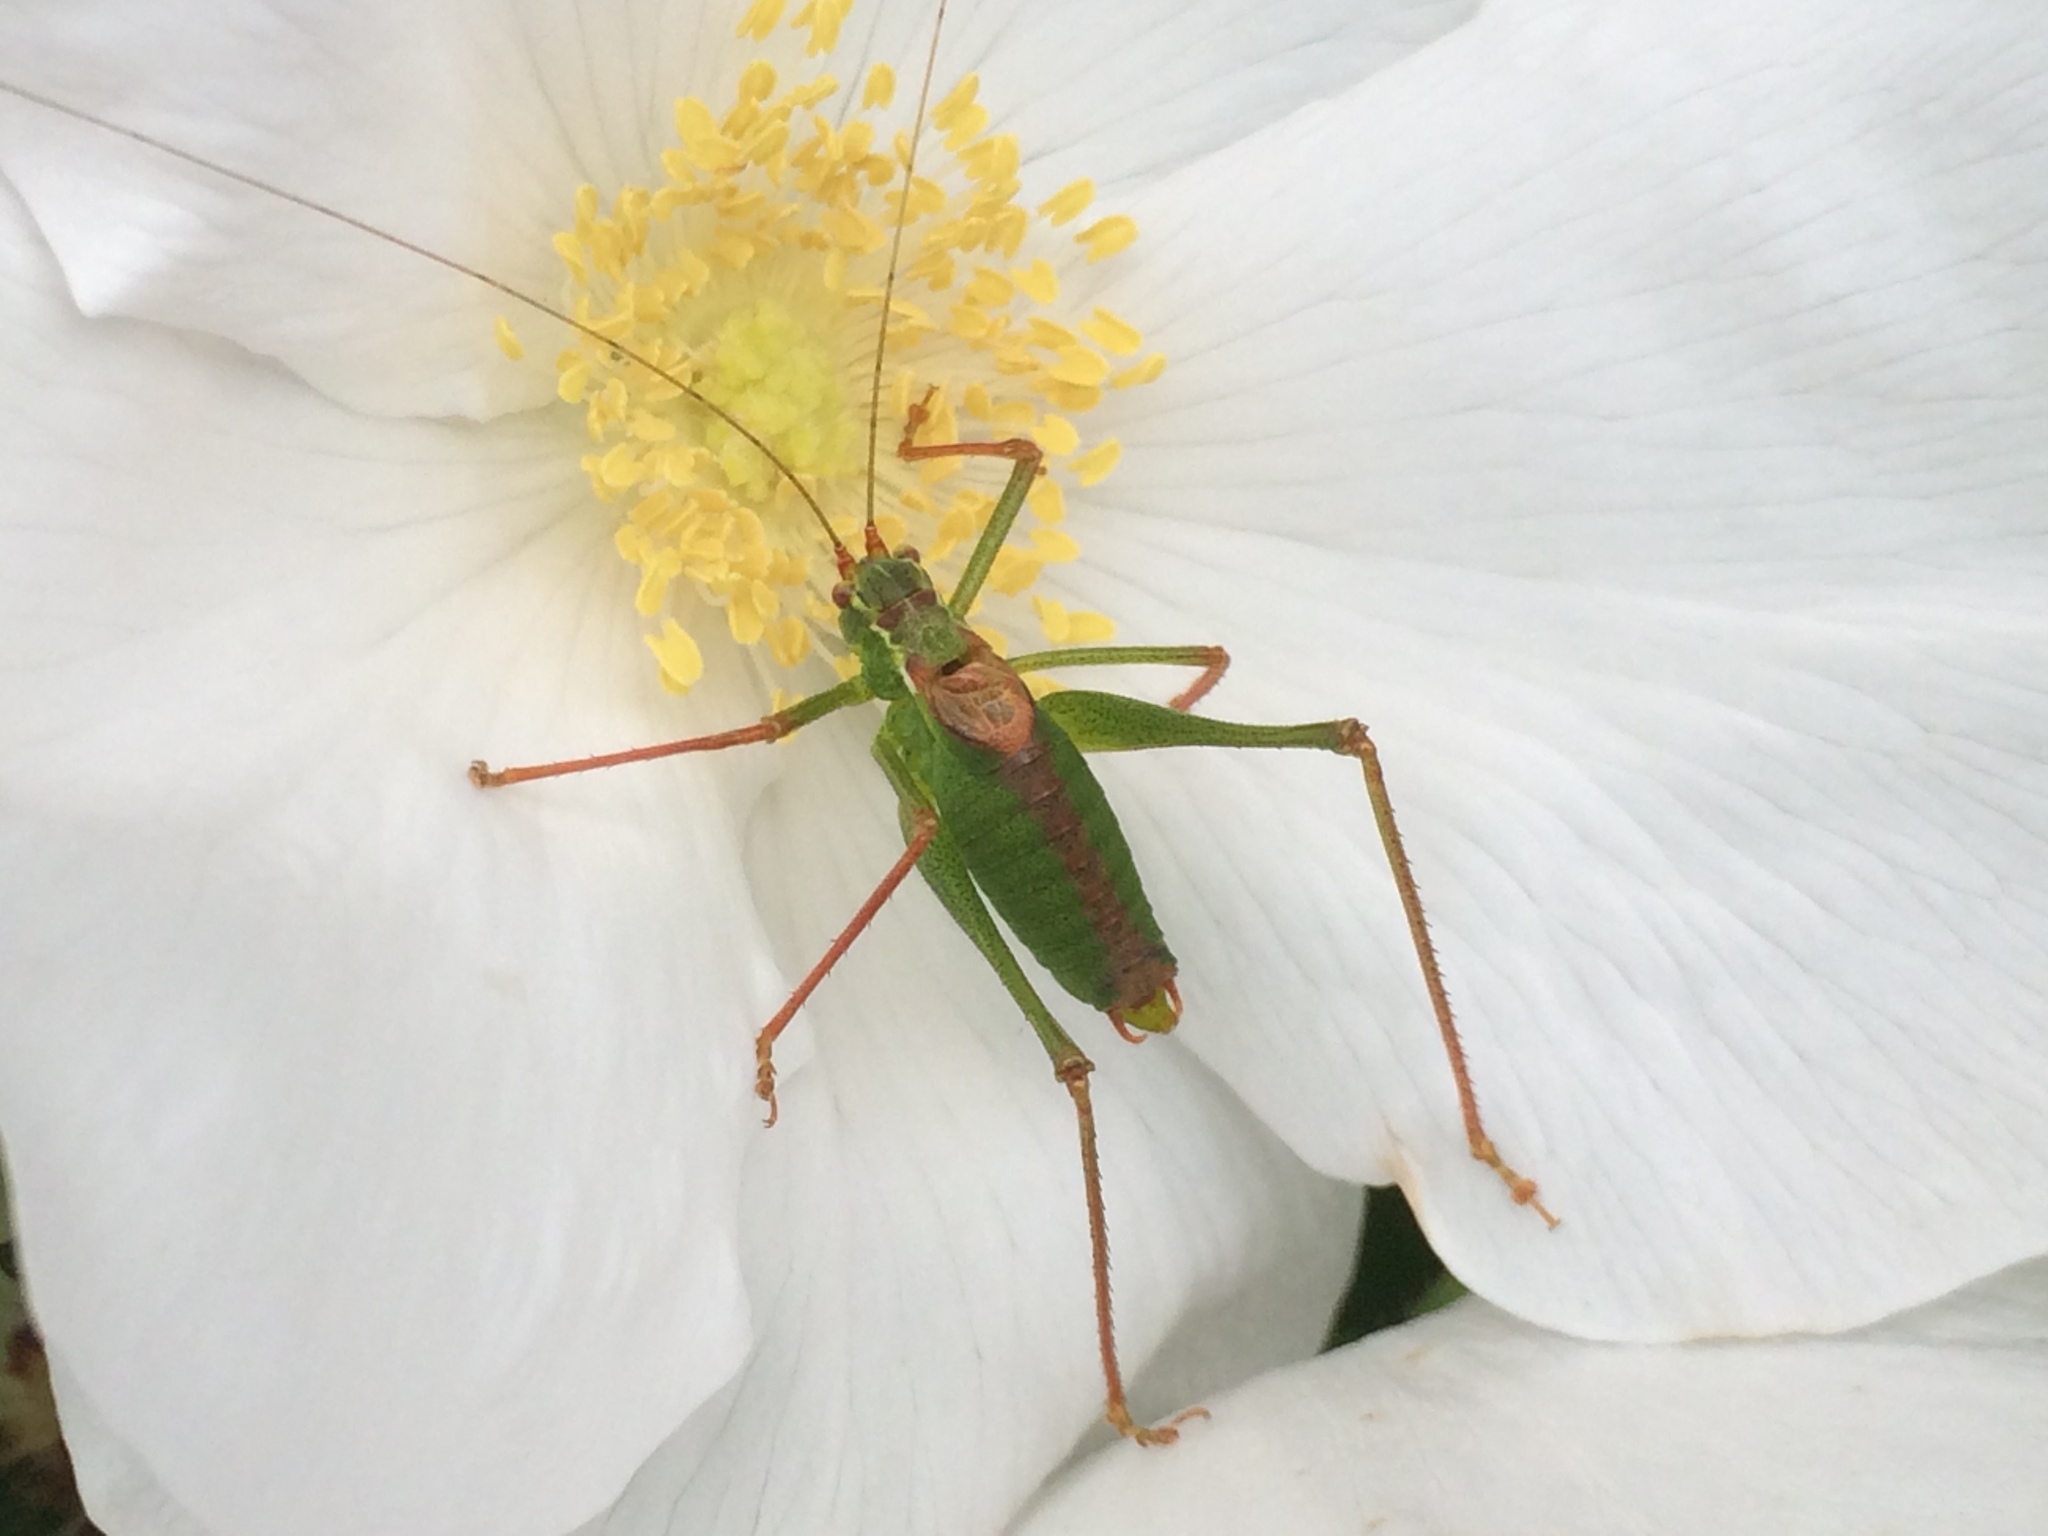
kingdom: Animalia
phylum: Arthropoda
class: Insecta
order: Orthoptera
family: Tettigoniidae
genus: Leptophyes
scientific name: Leptophyes punctatissima
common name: Speckled bush-cricket
